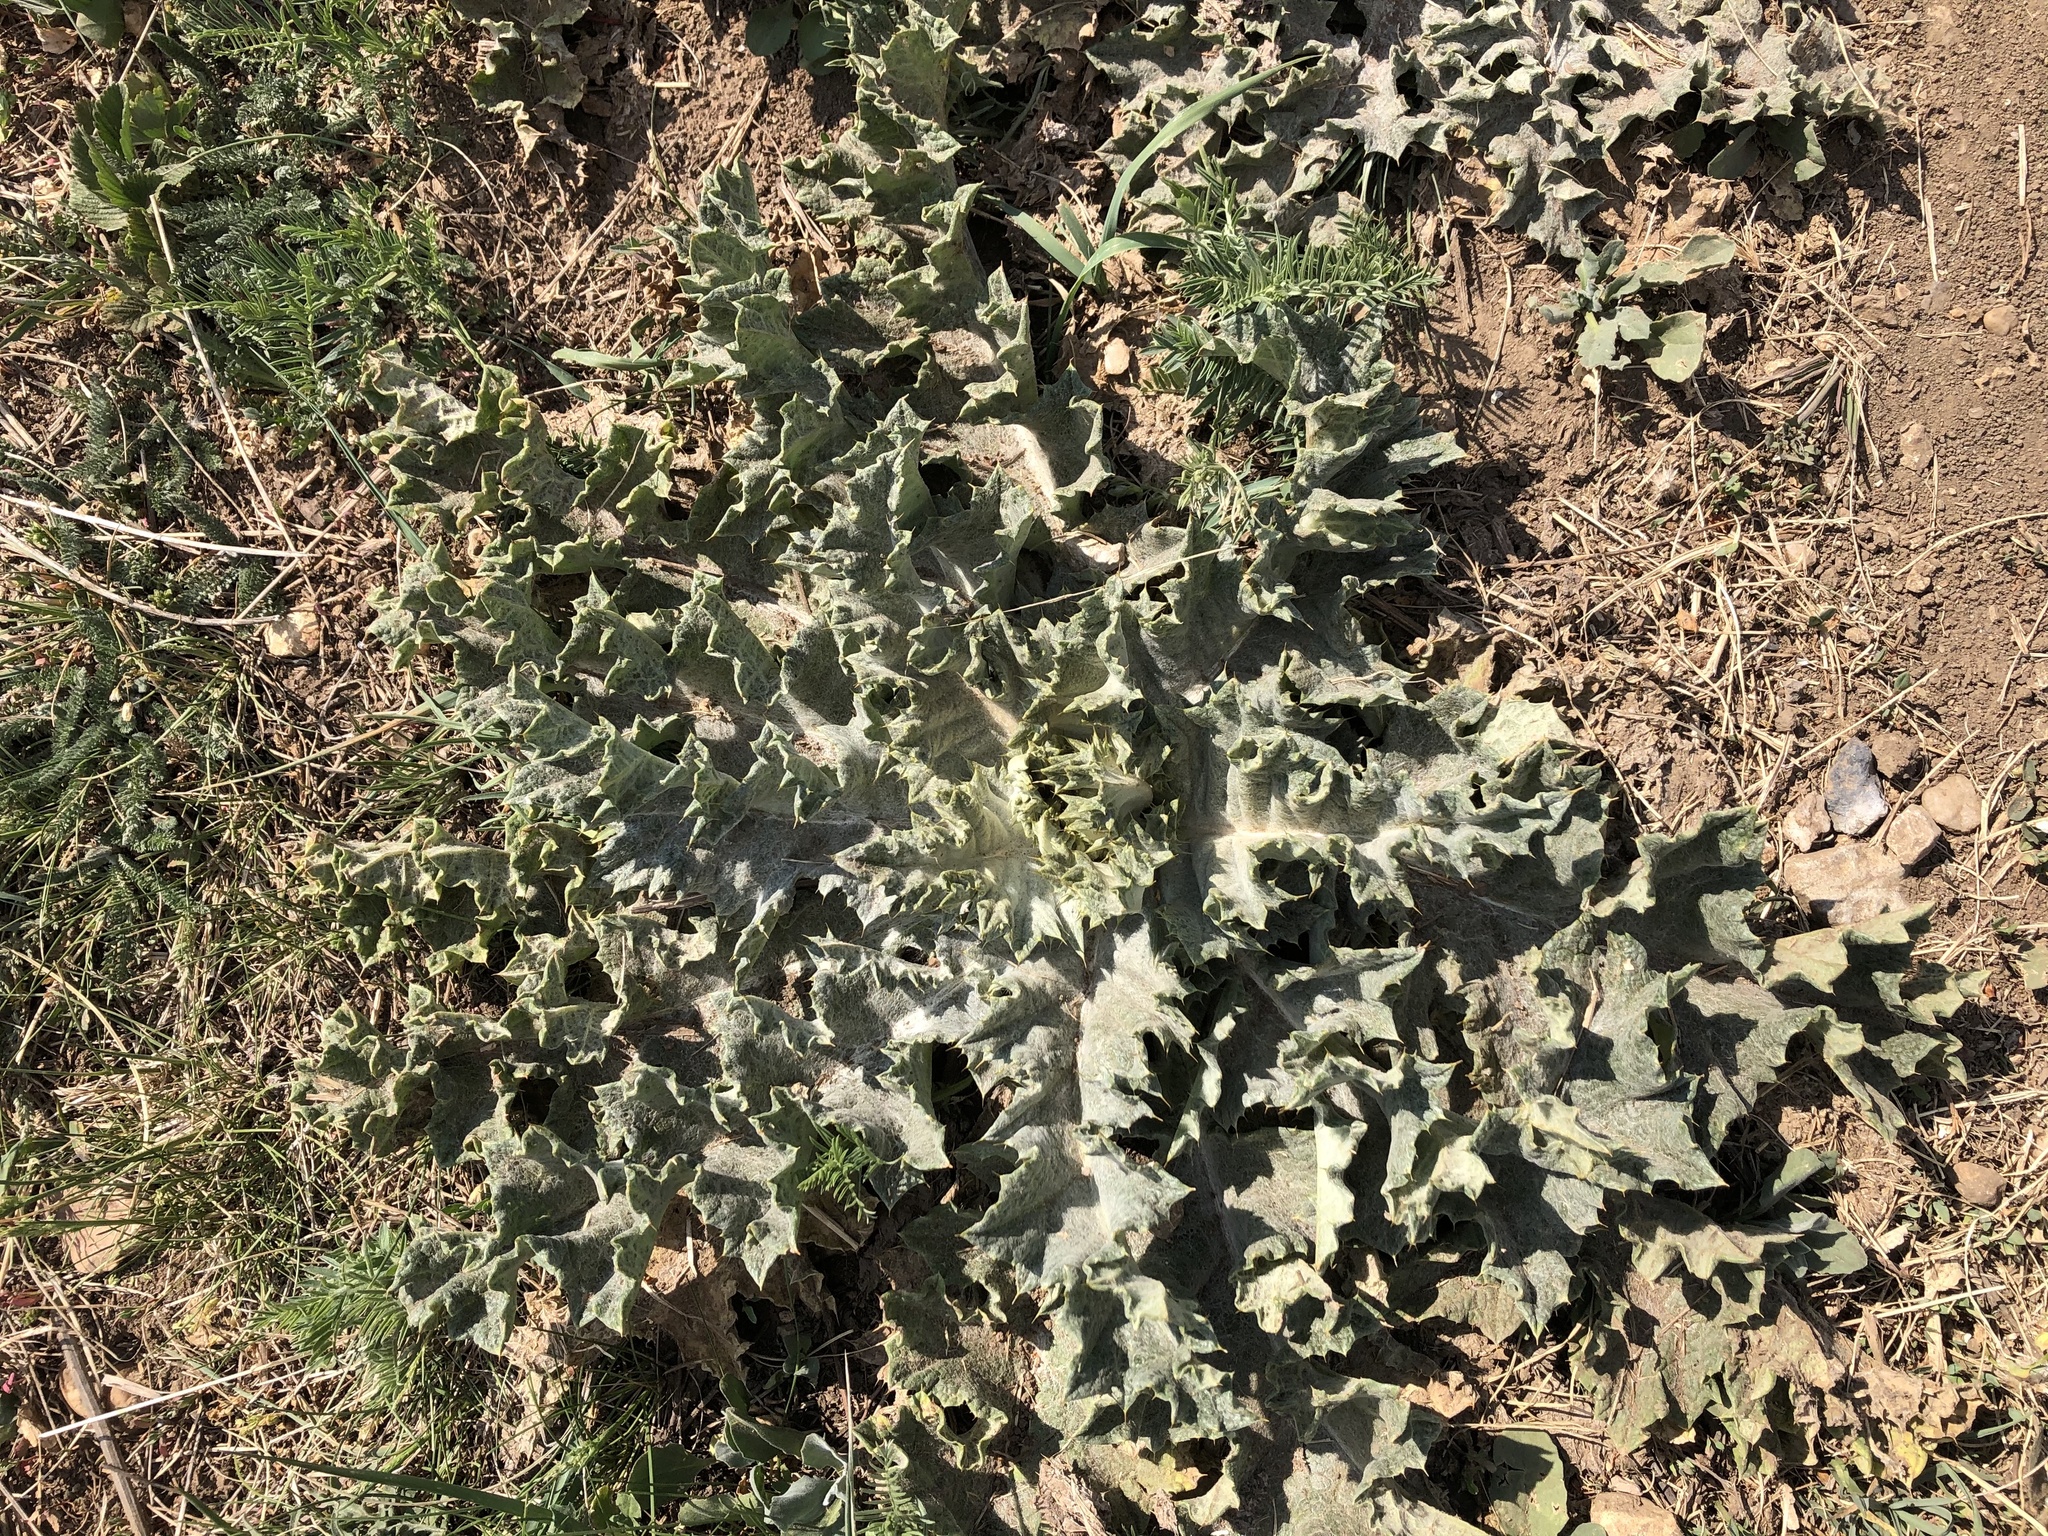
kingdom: Plantae
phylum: Tracheophyta
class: Magnoliopsida
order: Asterales
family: Asteraceae
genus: Onopordum
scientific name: Onopordum acanthium
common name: Scotch thistle
